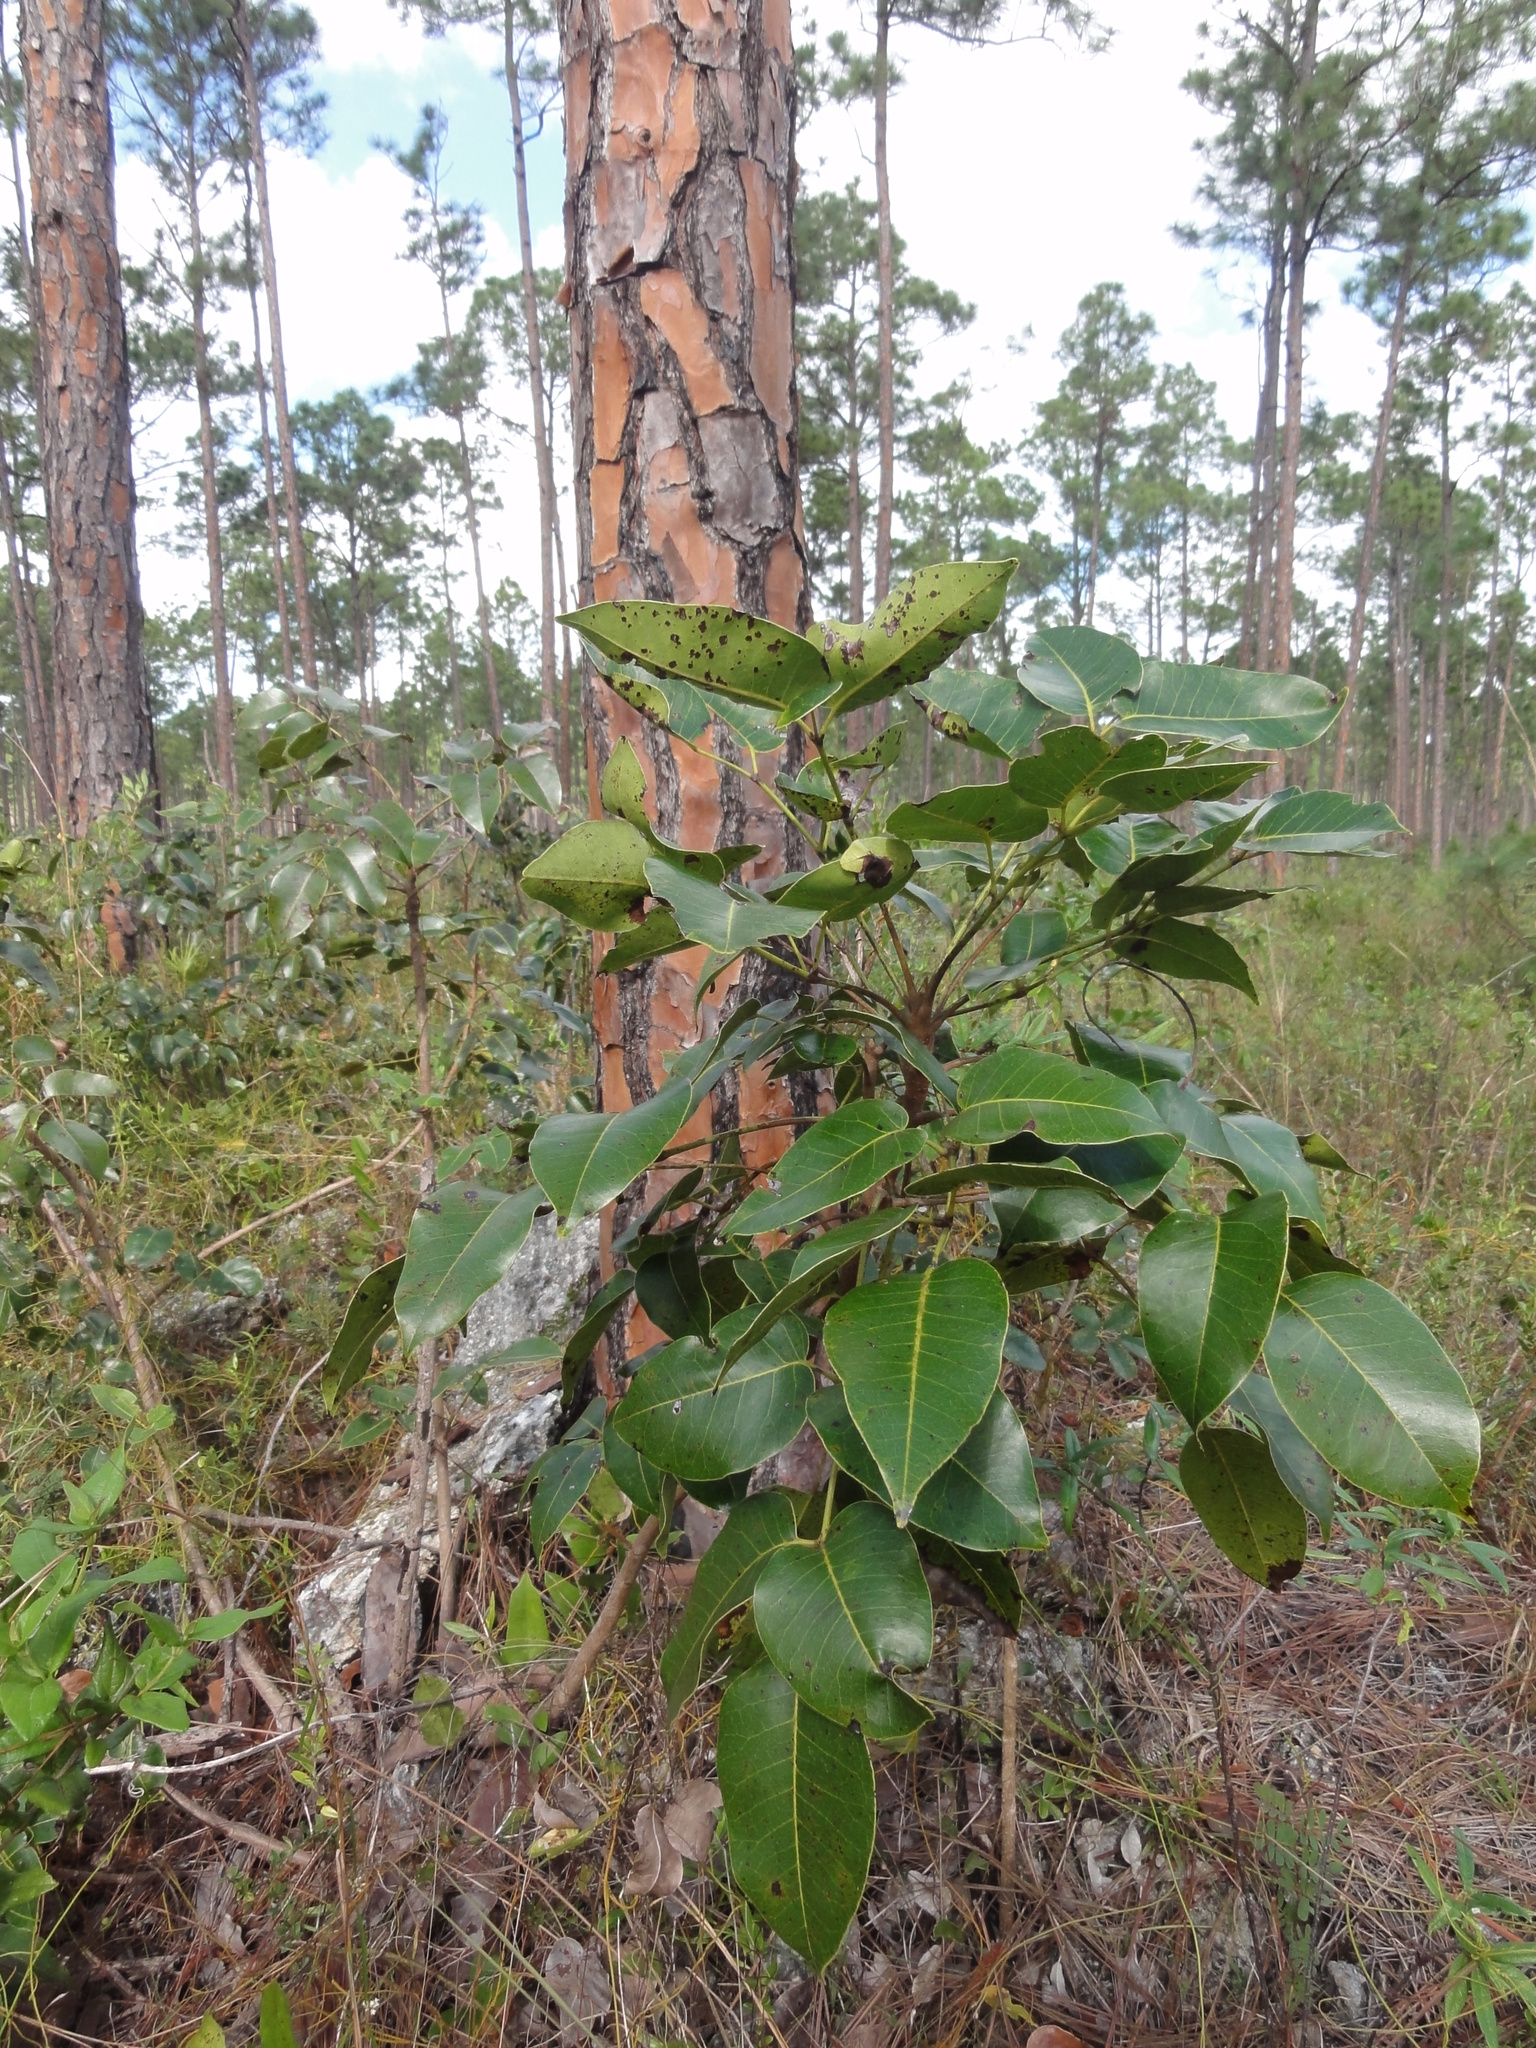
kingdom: Plantae
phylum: Tracheophyta
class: Magnoliopsida
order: Sapindales
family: Anacardiaceae
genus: Metopium
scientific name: Metopium toxiferum
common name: Florida poisontree
